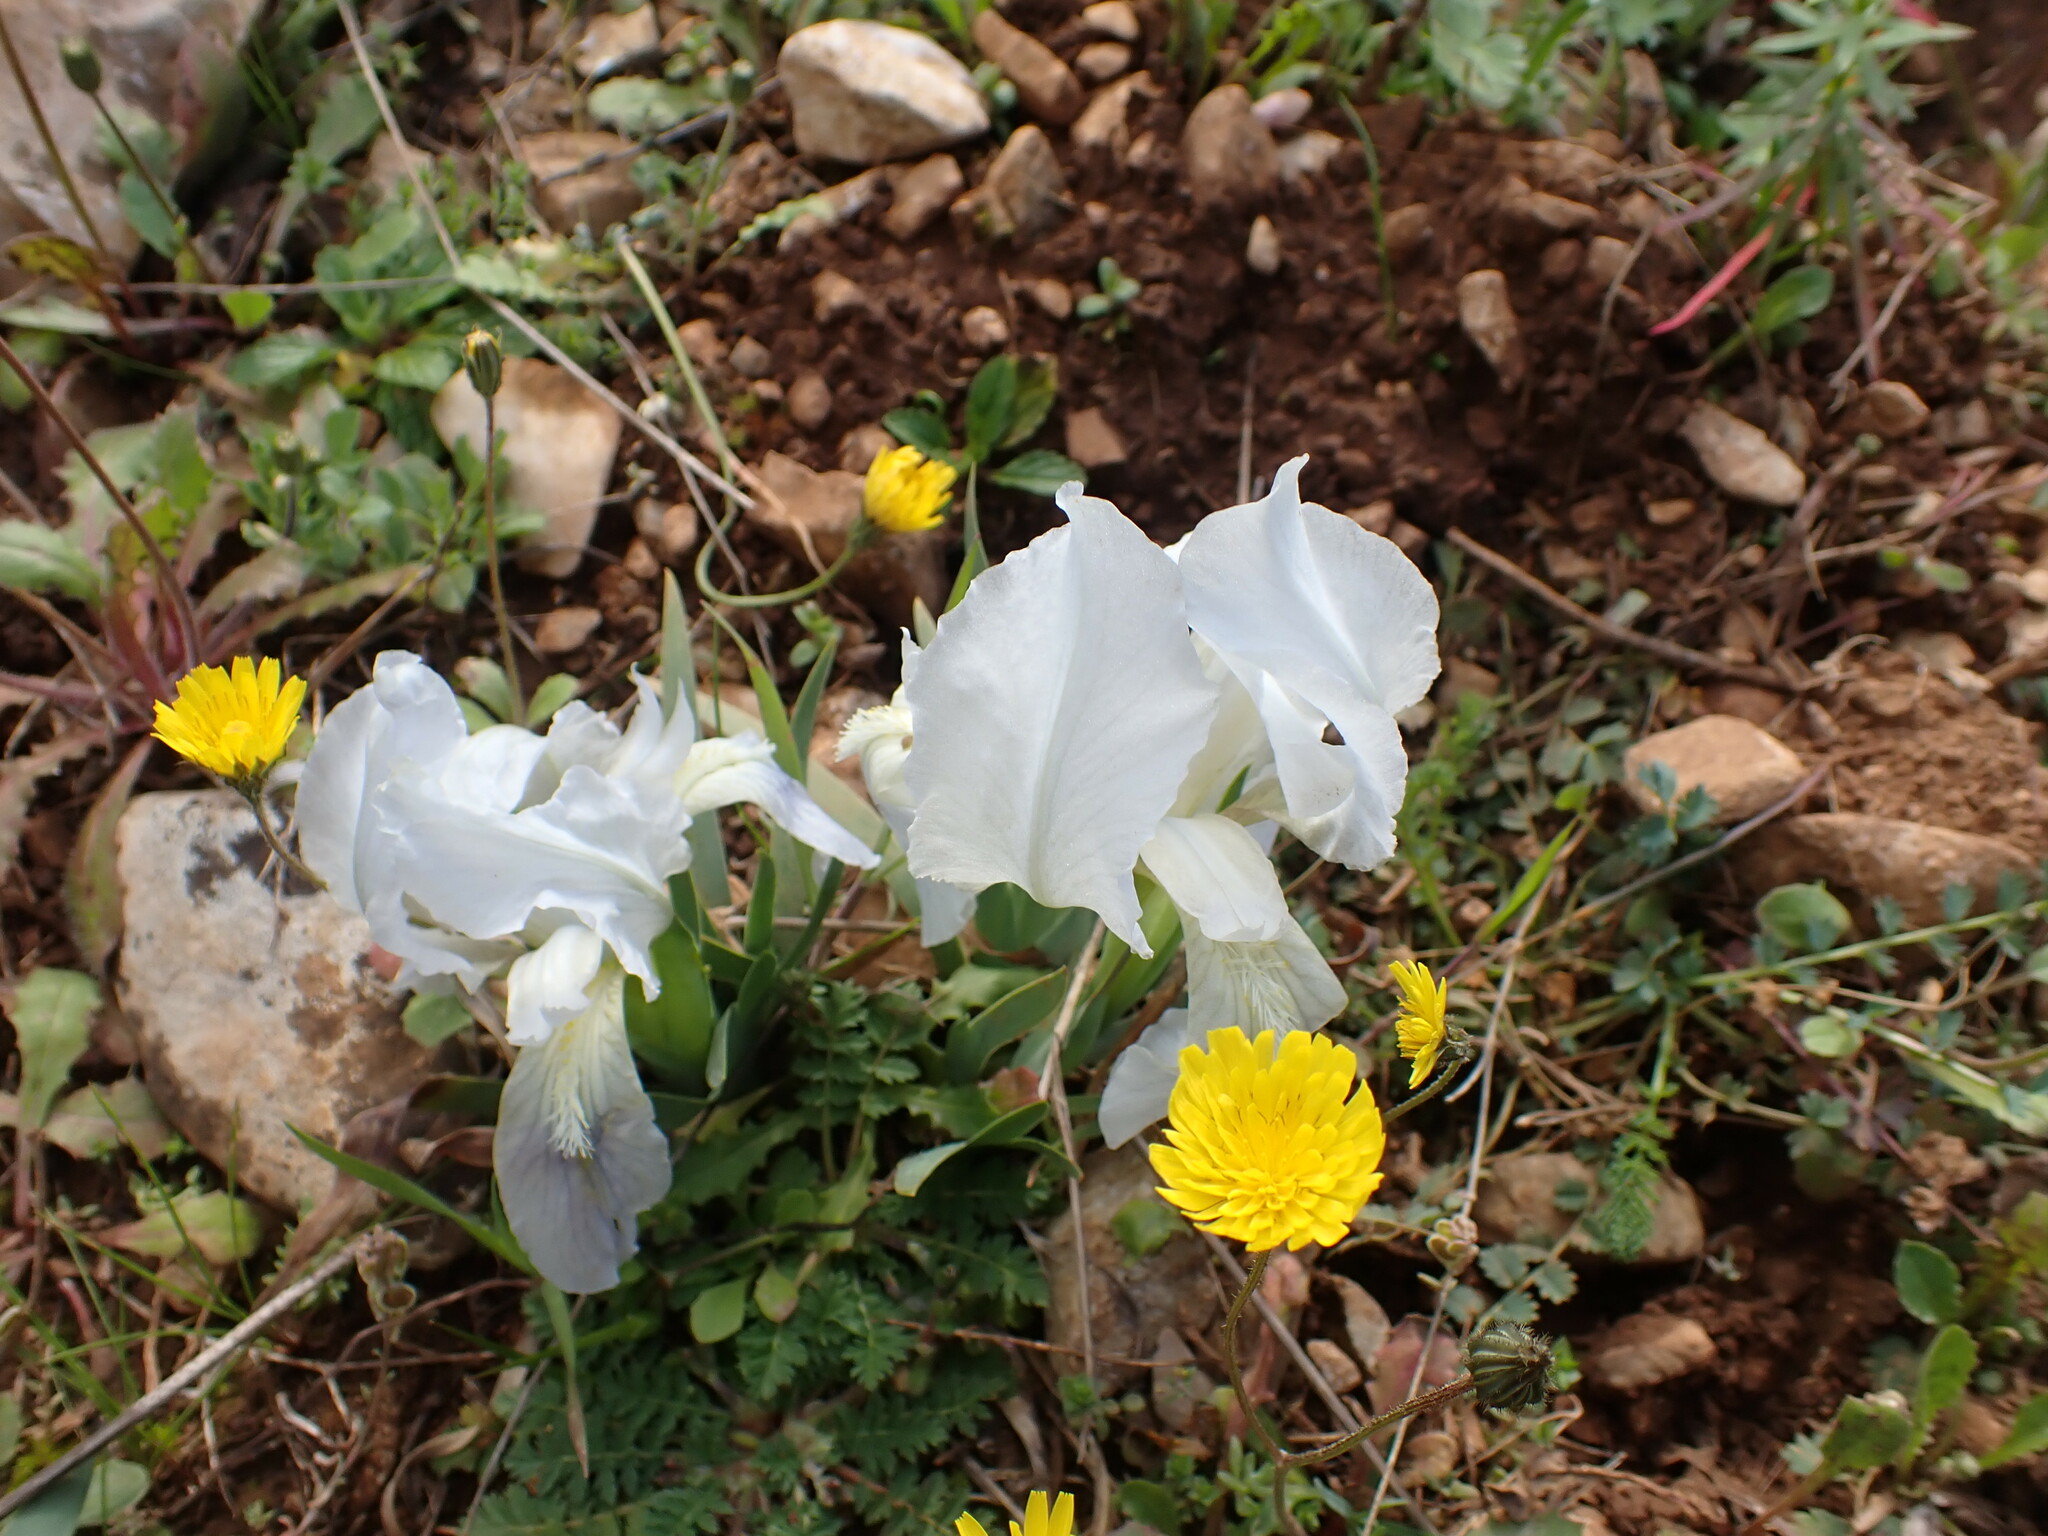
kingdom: Plantae
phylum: Tracheophyta
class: Liliopsida
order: Asparagales
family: Iridaceae
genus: Iris
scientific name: Iris lutescens
